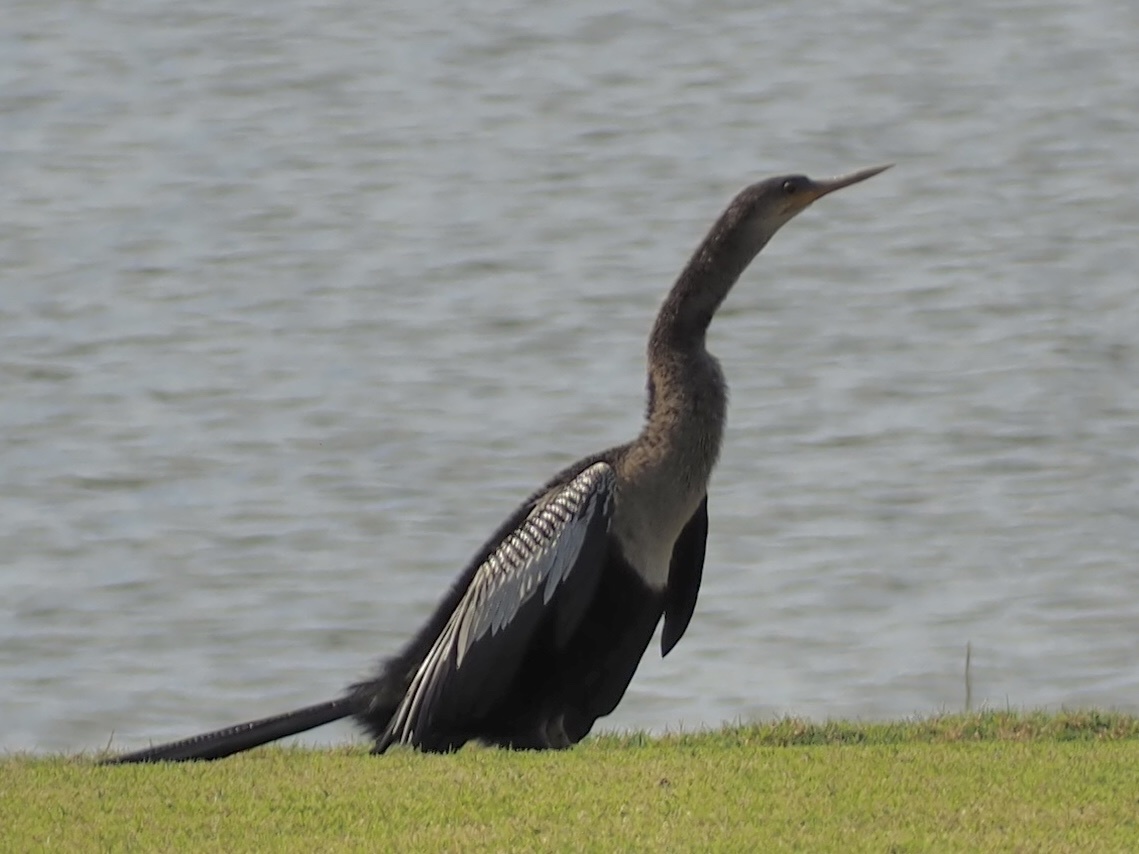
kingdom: Animalia
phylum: Chordata
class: Aves
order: Suliformes
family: Anhingidae
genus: Anhinga
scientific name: Anhinga anhinga
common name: Anhinga
